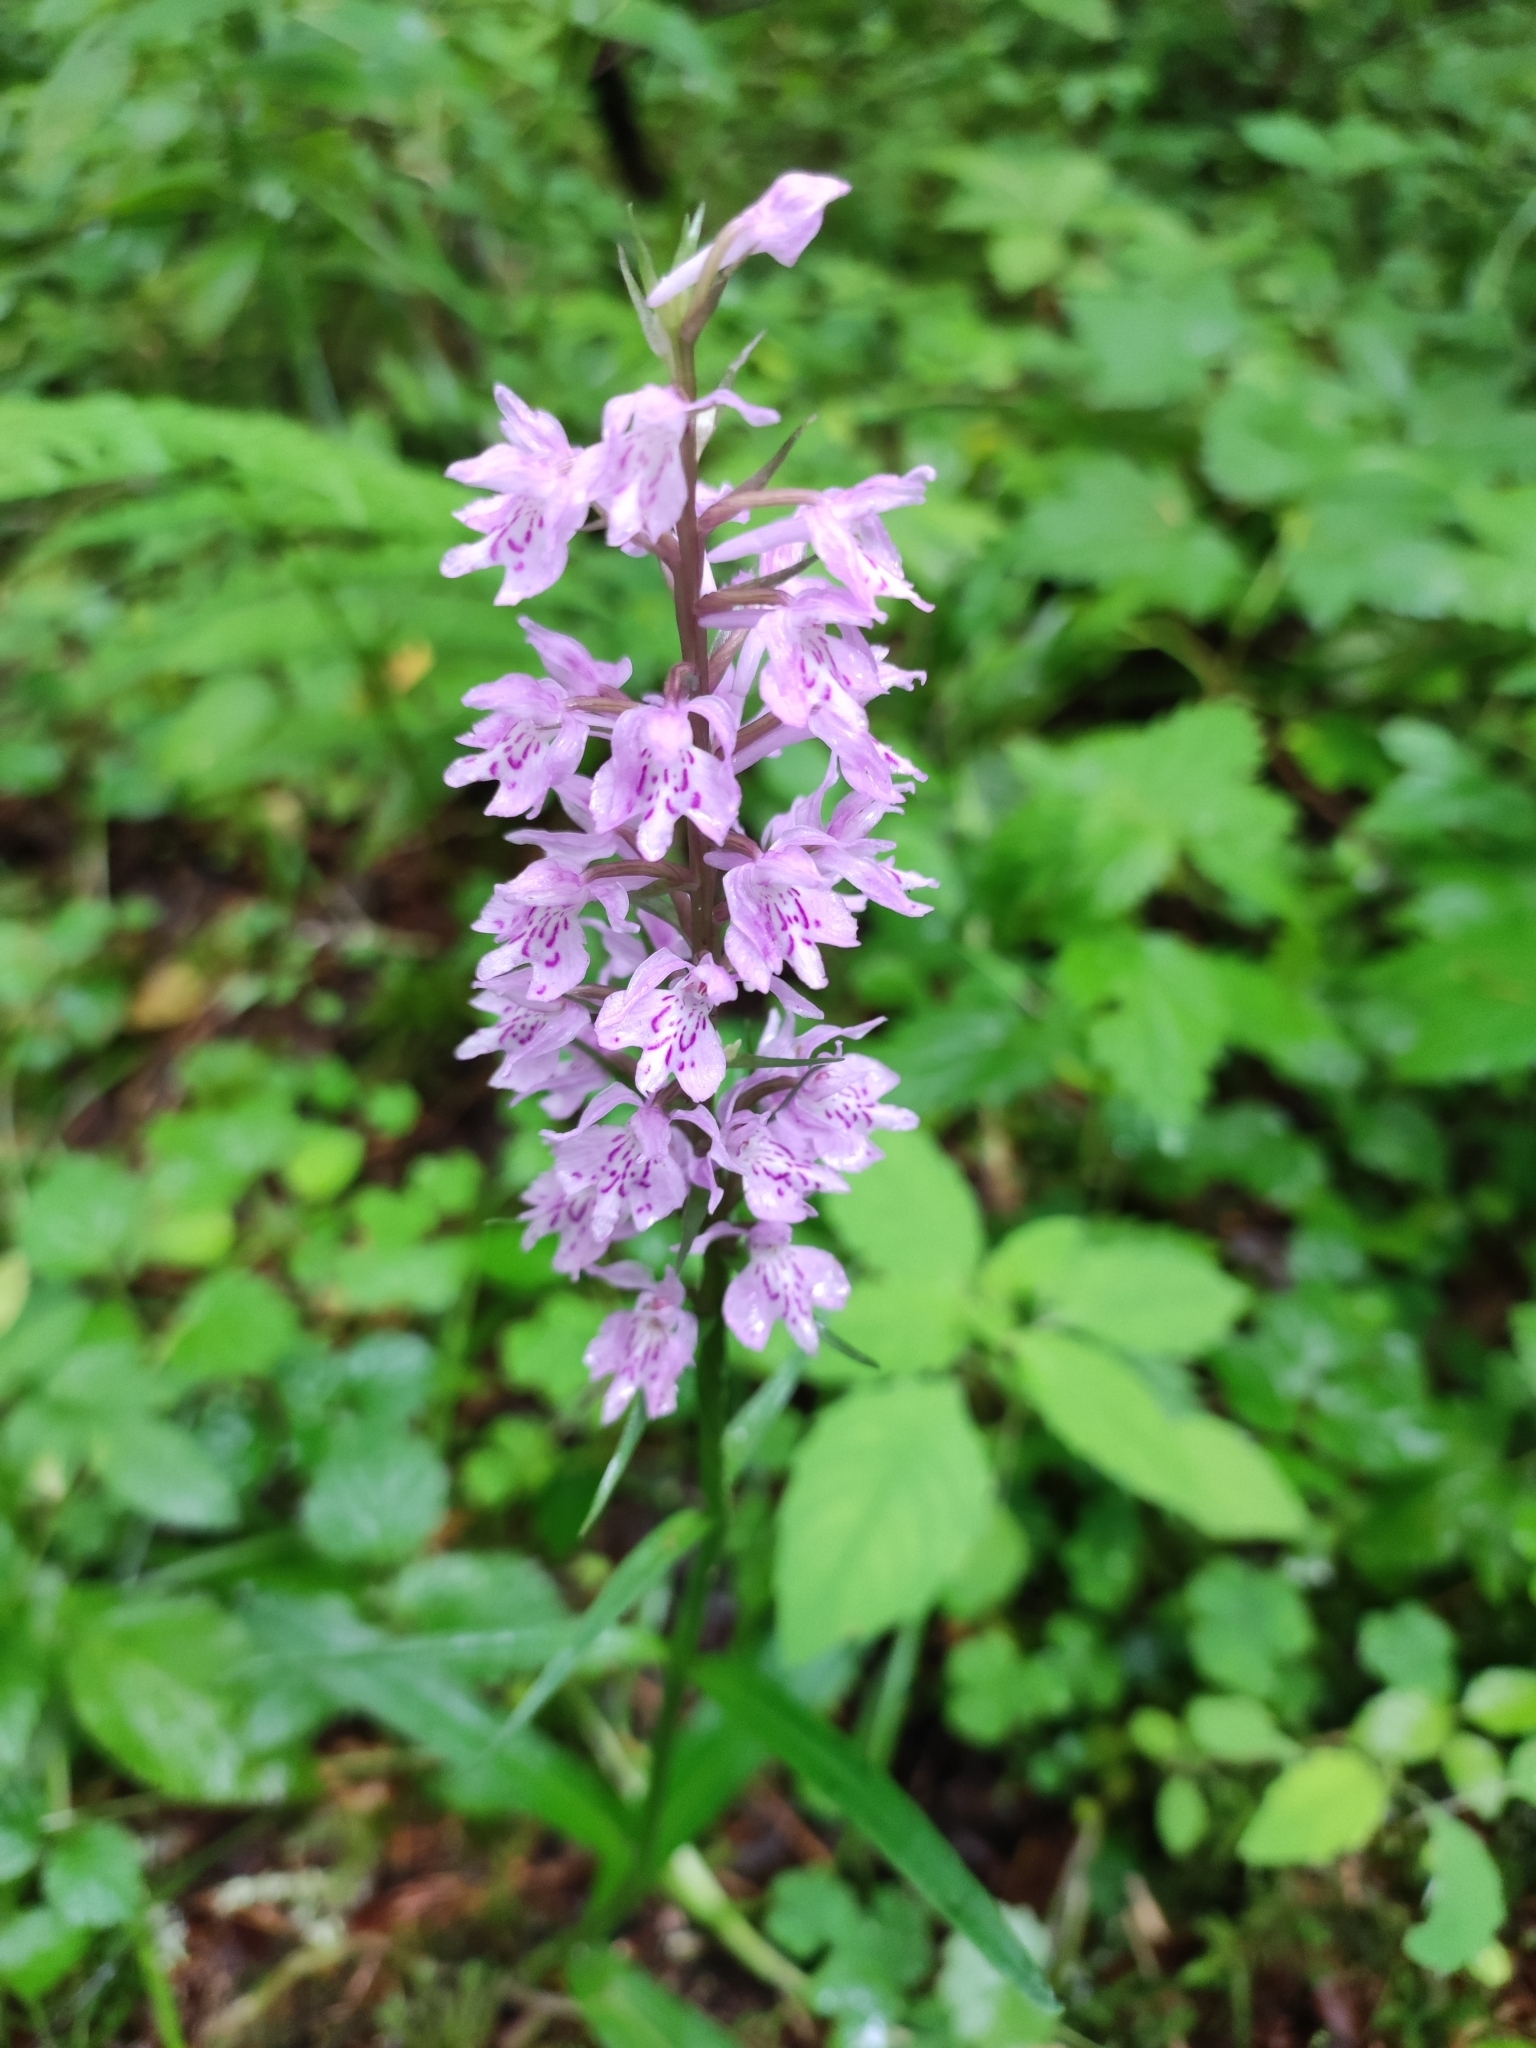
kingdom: Plantae
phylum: Tracheophyta
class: Liliopsida
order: Asparagales
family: Orchidaceae
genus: Dactylorhiza
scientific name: Dactylorhiza maculata
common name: Heath spotted-orchid
